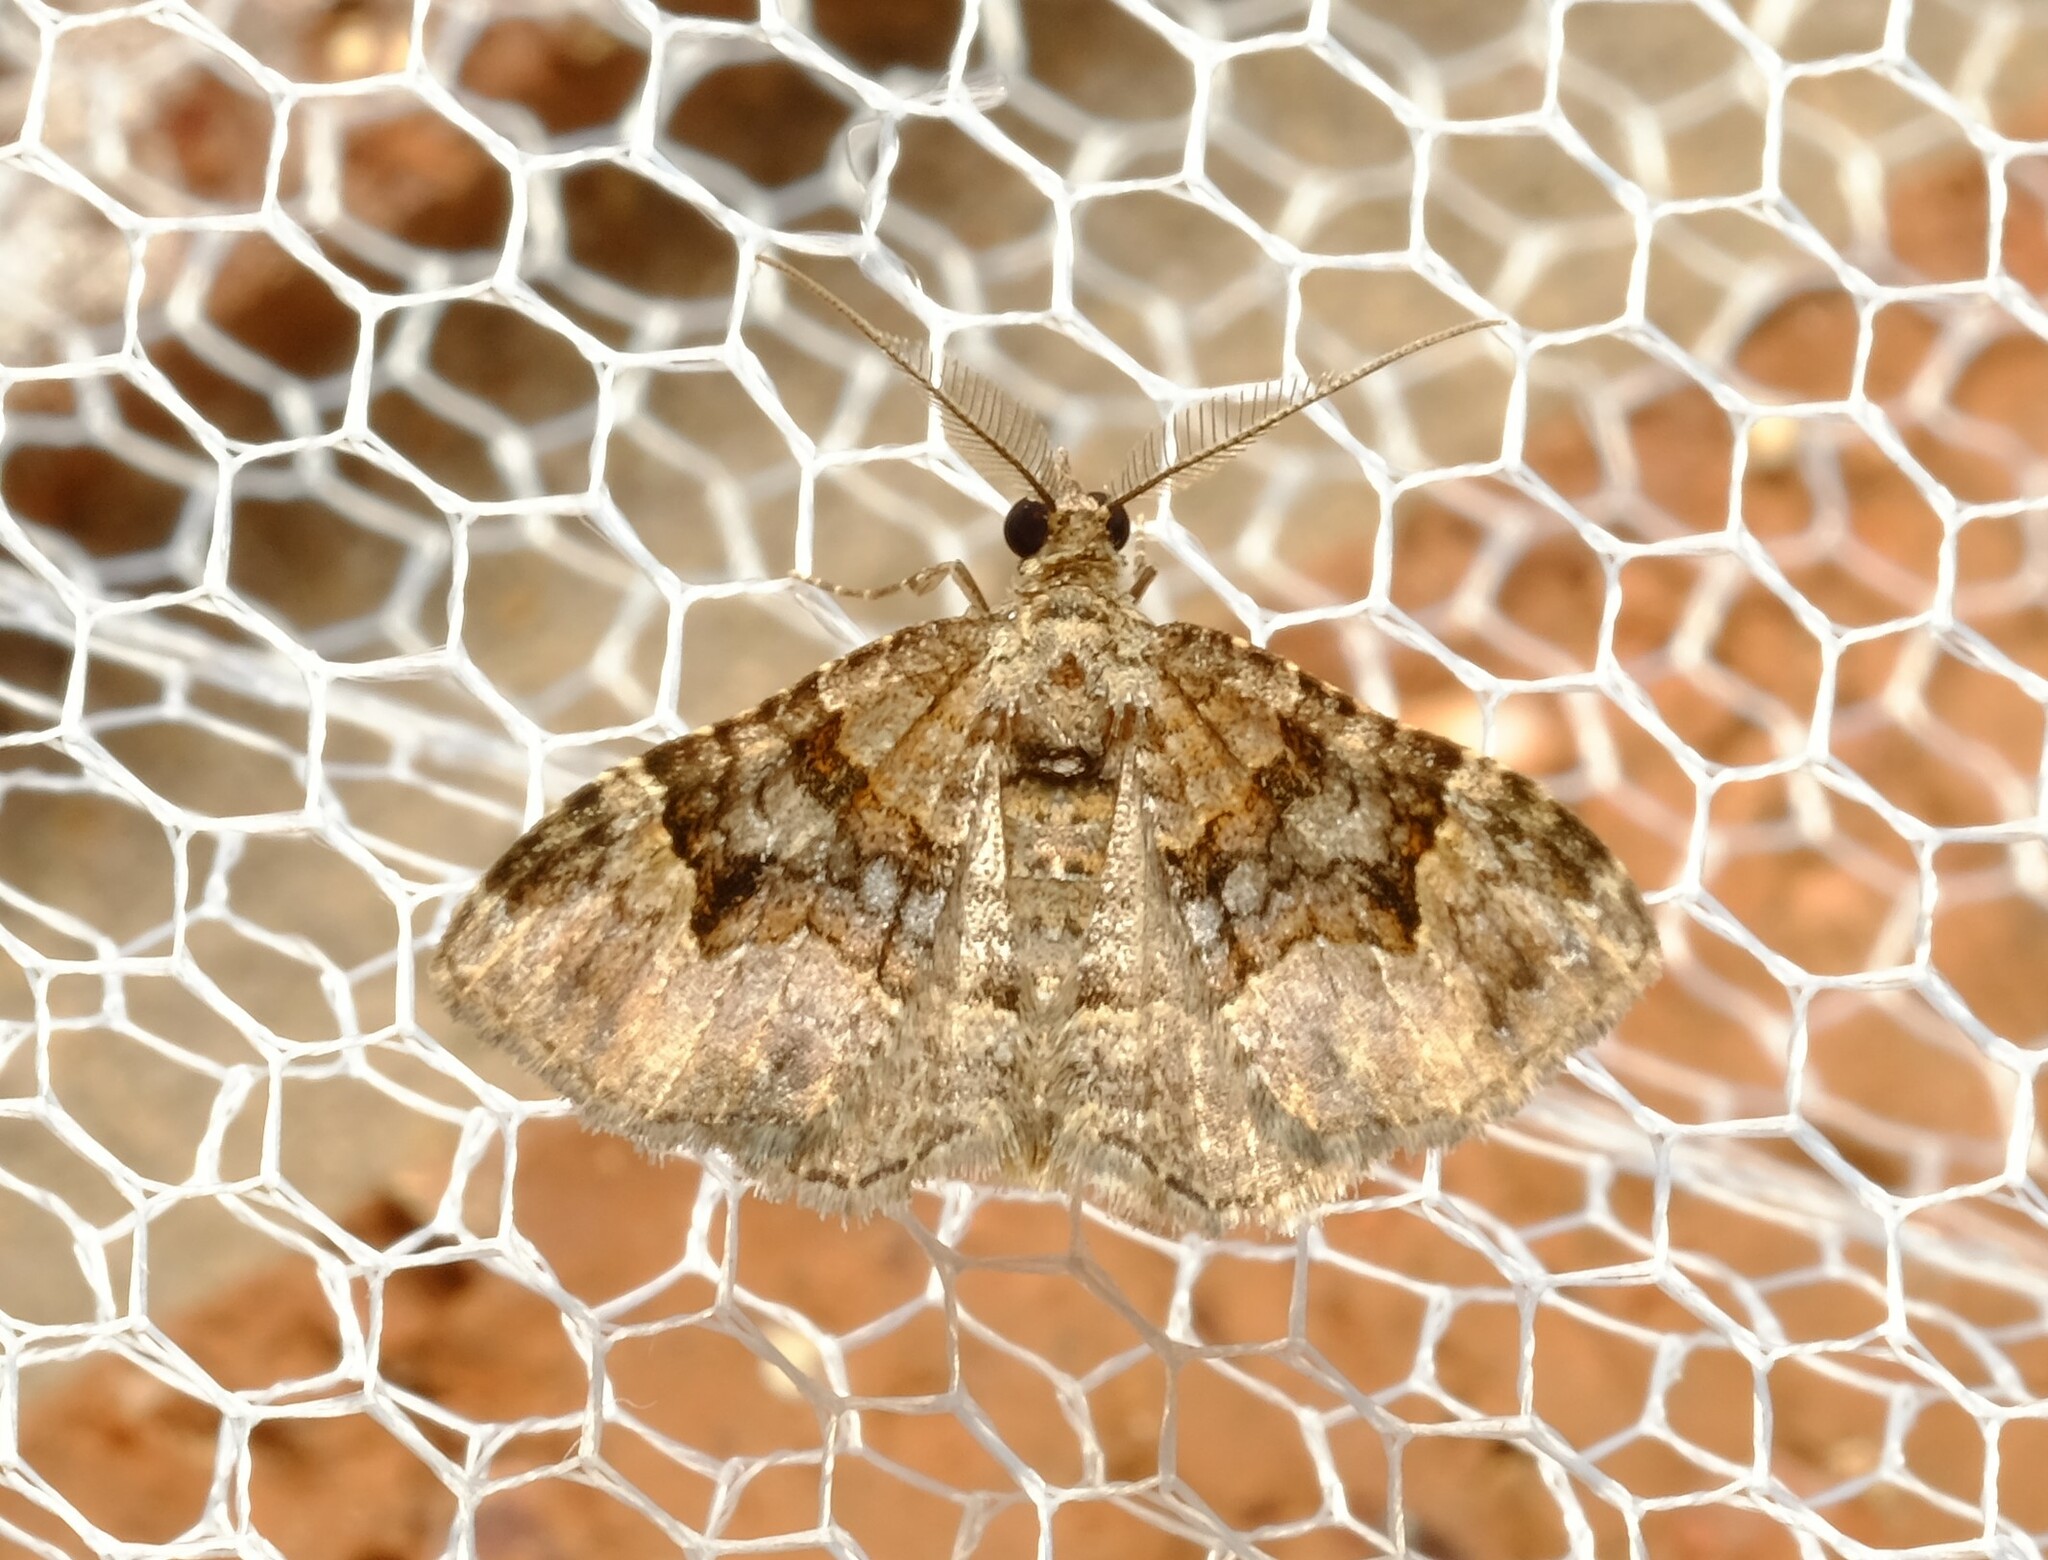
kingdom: Animalia
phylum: Arthropoda
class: Insecta
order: Lepidoptera
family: Geometridae
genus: Epyaxa
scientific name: Epyaxa sodaliata
